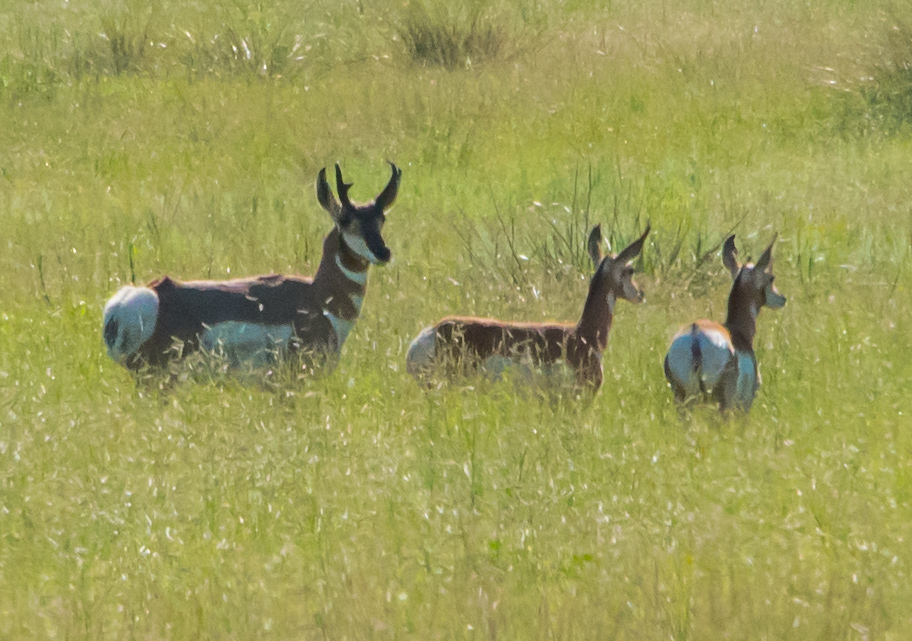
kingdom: Animalia
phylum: Chordata
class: Mammalia
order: Artiodactyla
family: Antilocapridae
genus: Antilocapra
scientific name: Antilocapra americana
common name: Pronghorn
